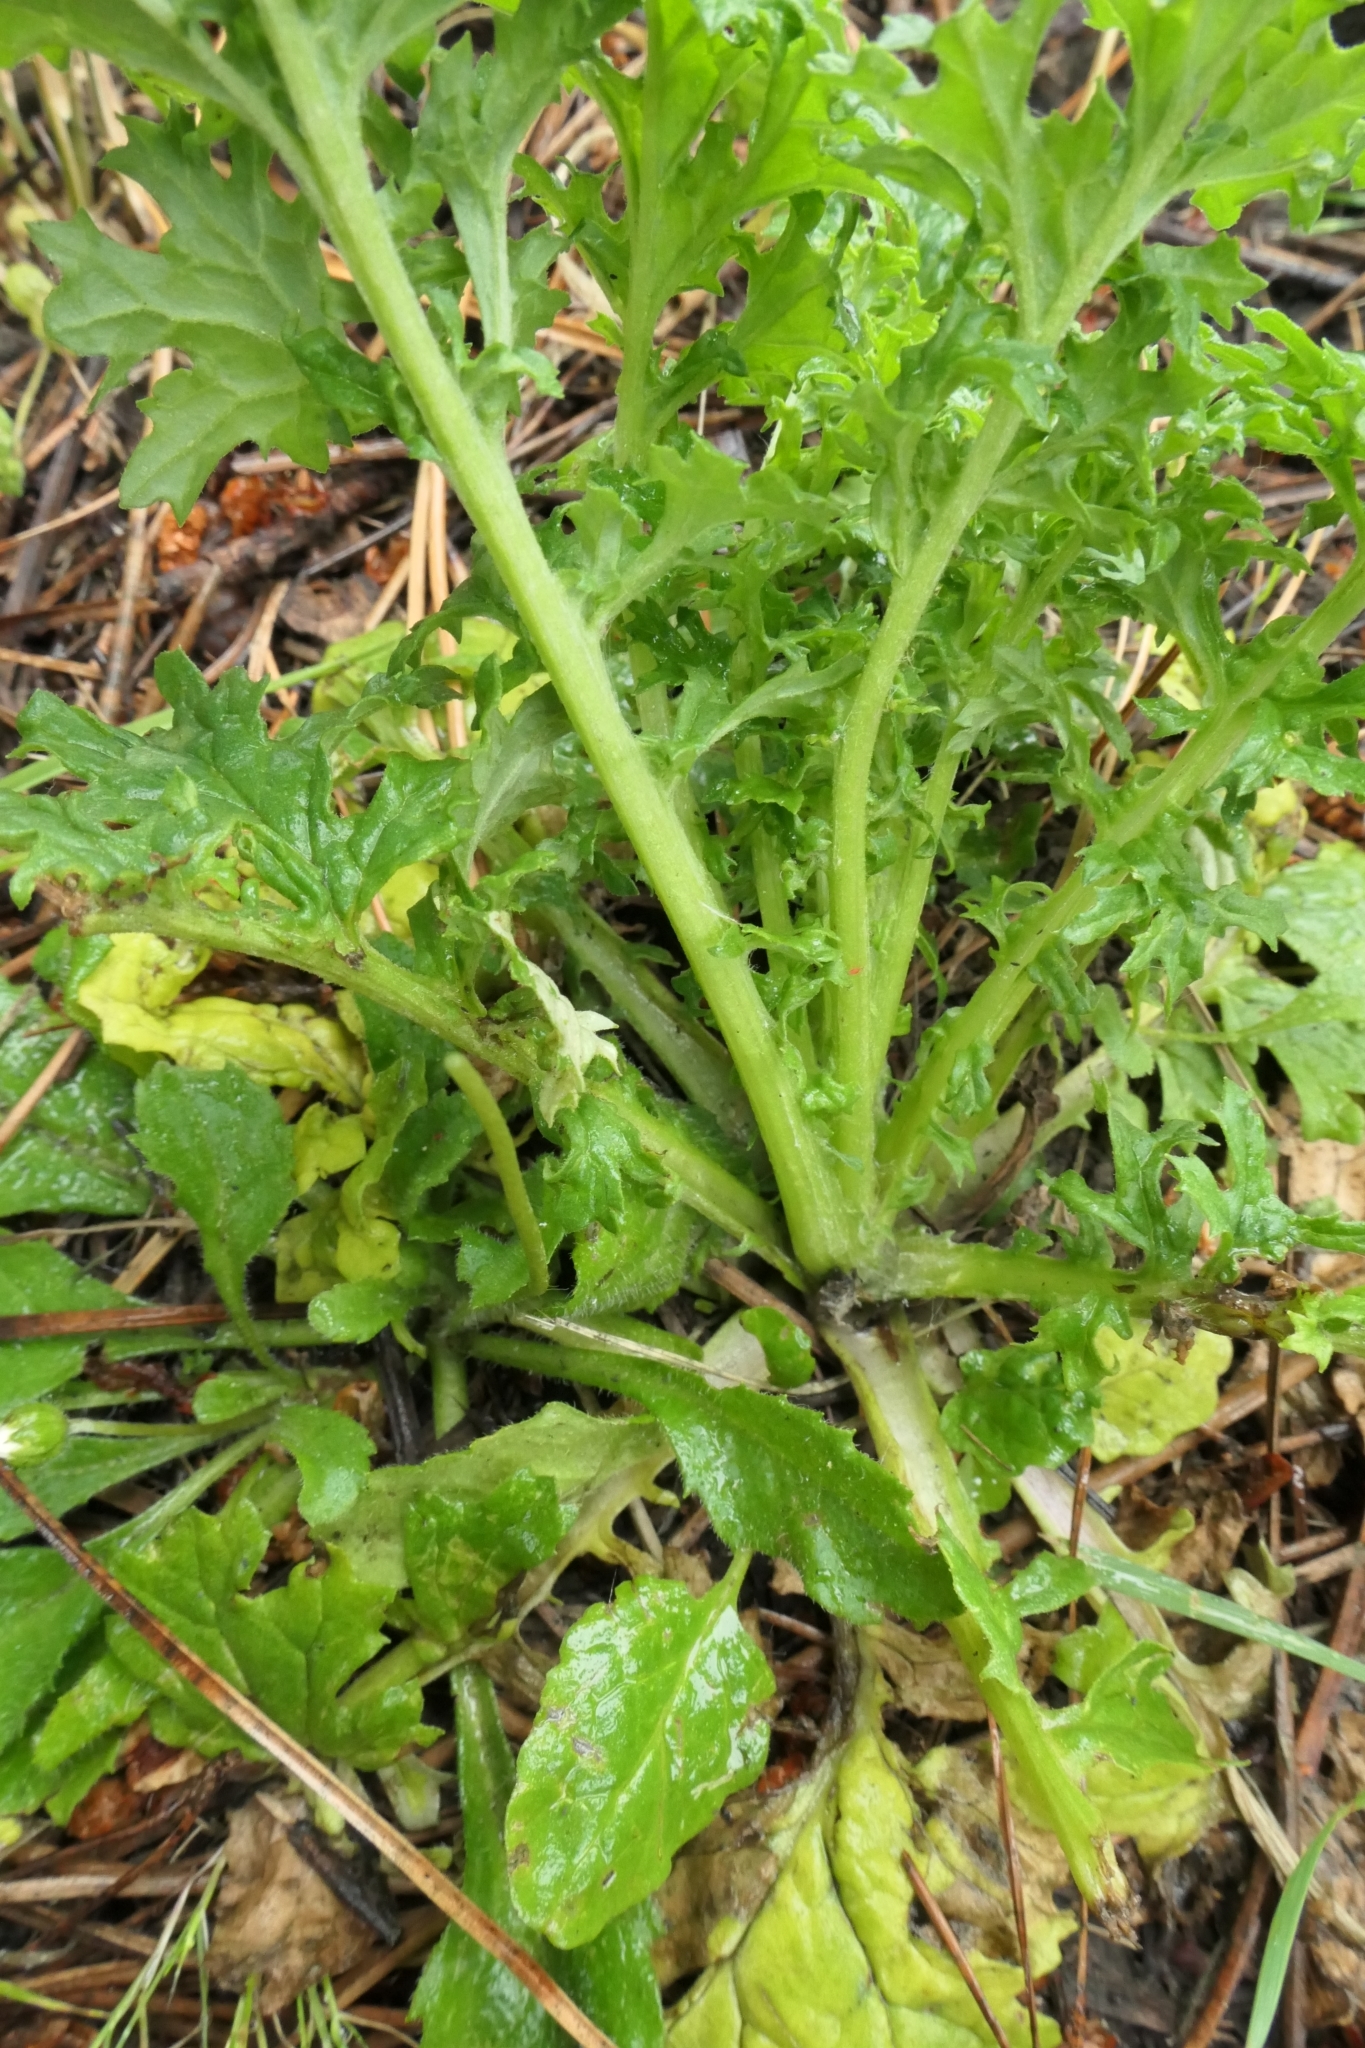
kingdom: Animalia
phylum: Arthropoda
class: Insecta
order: Coleoptera
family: Curculionidae
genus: Irenimus
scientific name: Irenimus parilis
